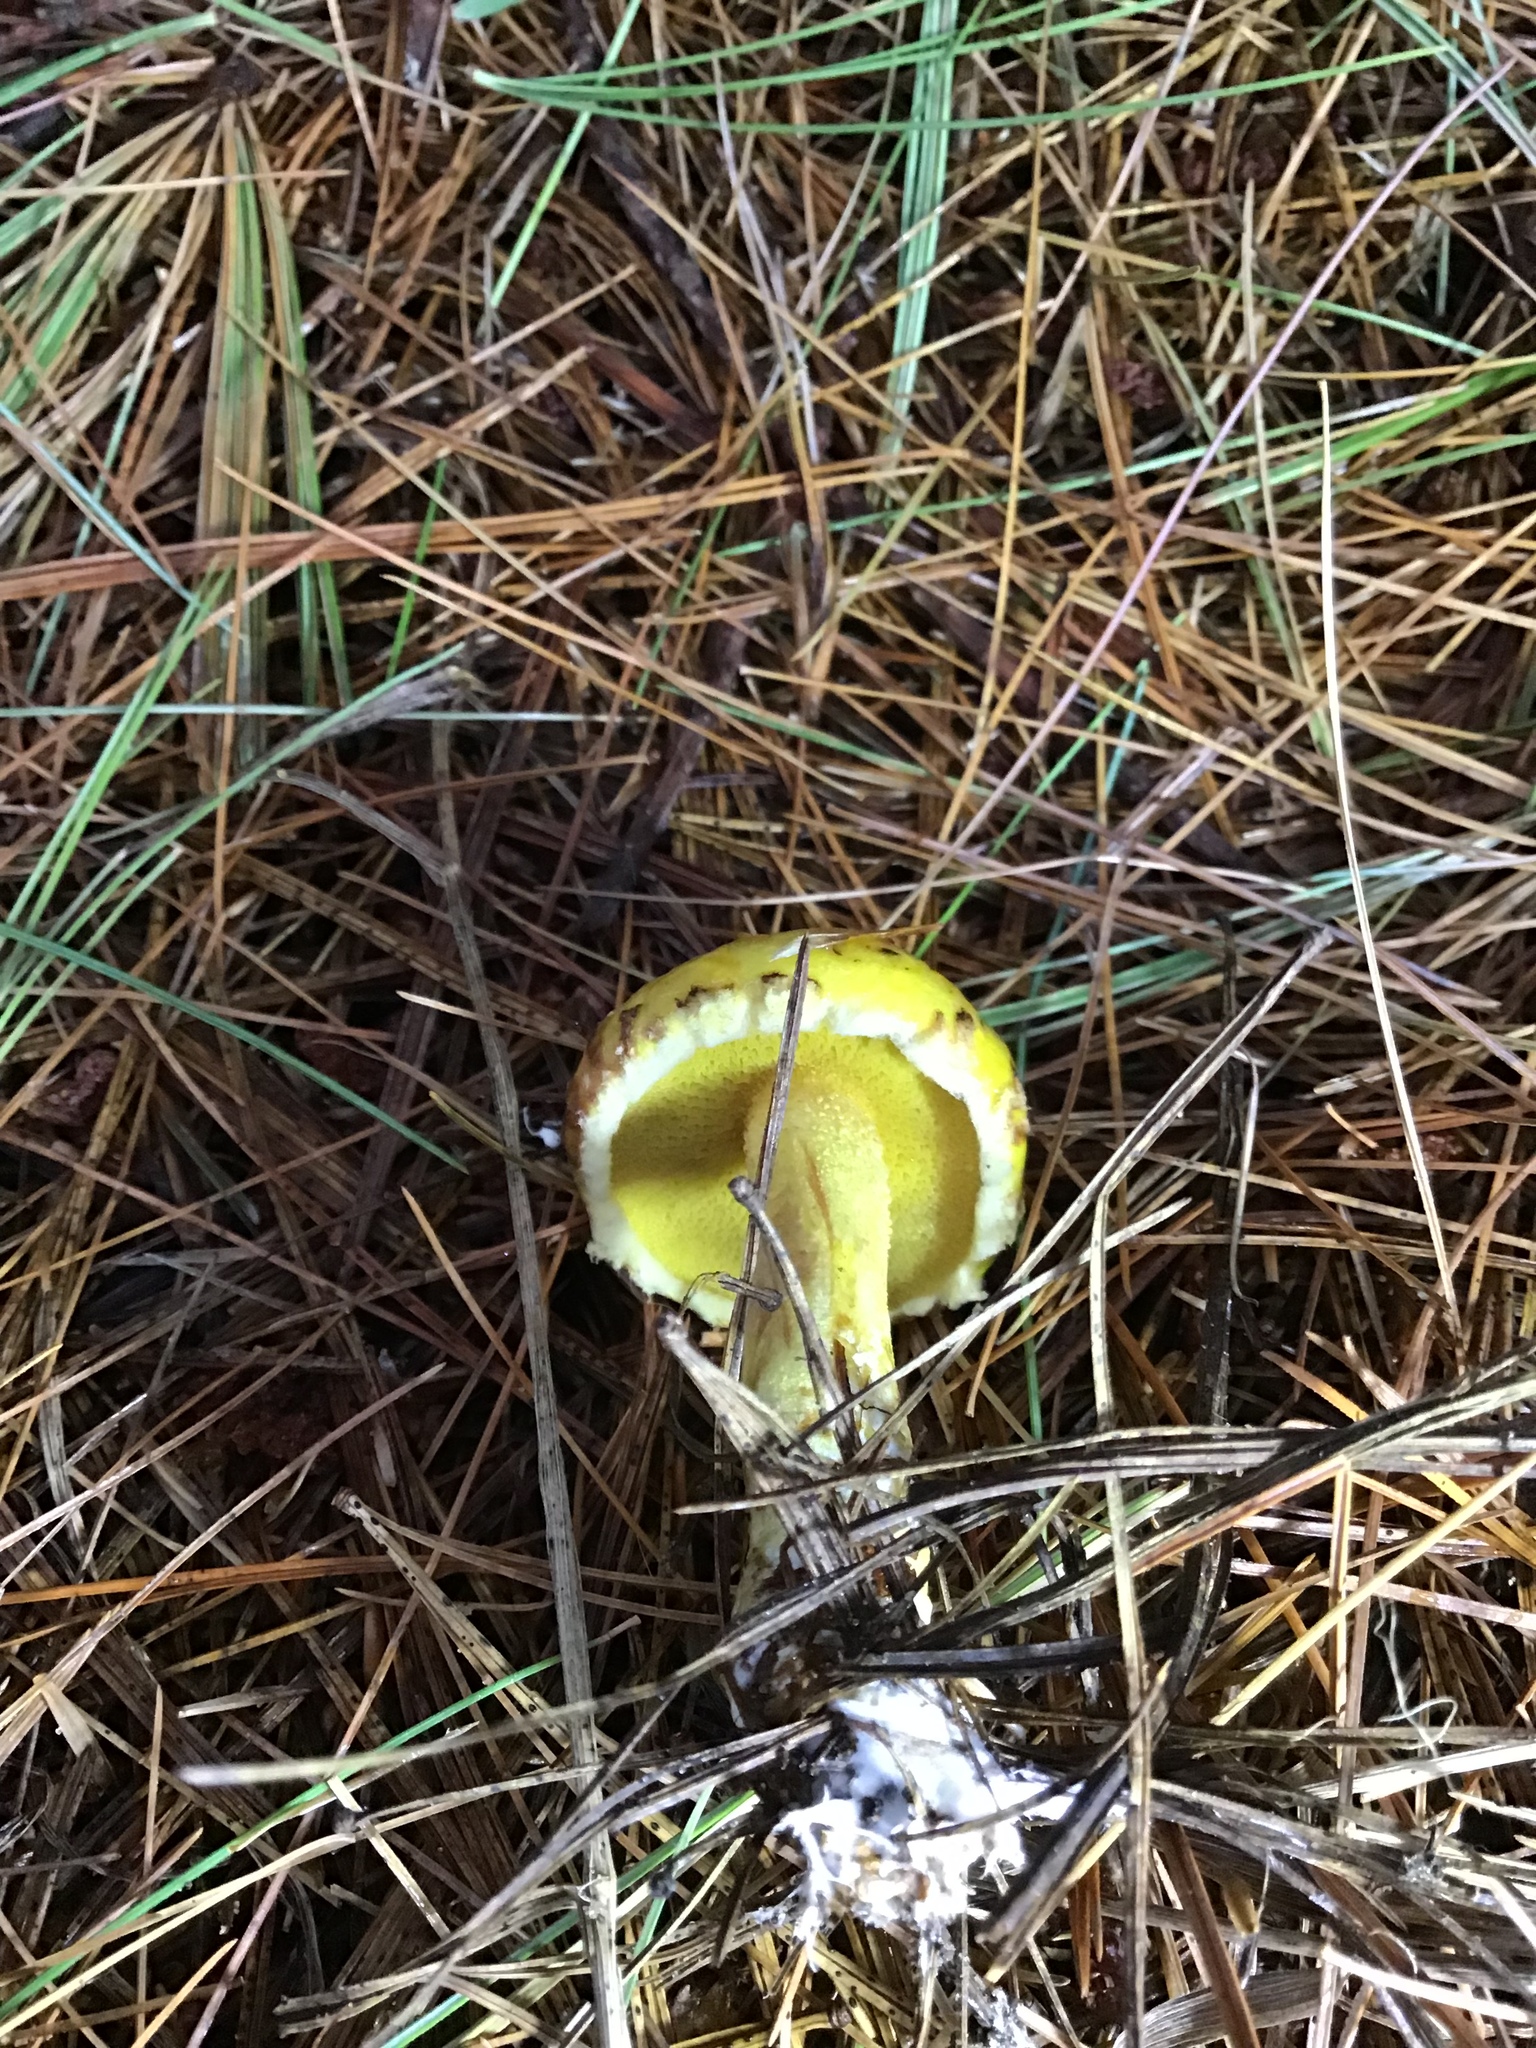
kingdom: Fungi
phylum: Basidiomycota
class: Agaricomycetes
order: Boletales
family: Suillaceae
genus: Suillus
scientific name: Suillus americanus
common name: Chicken fat mushroom
